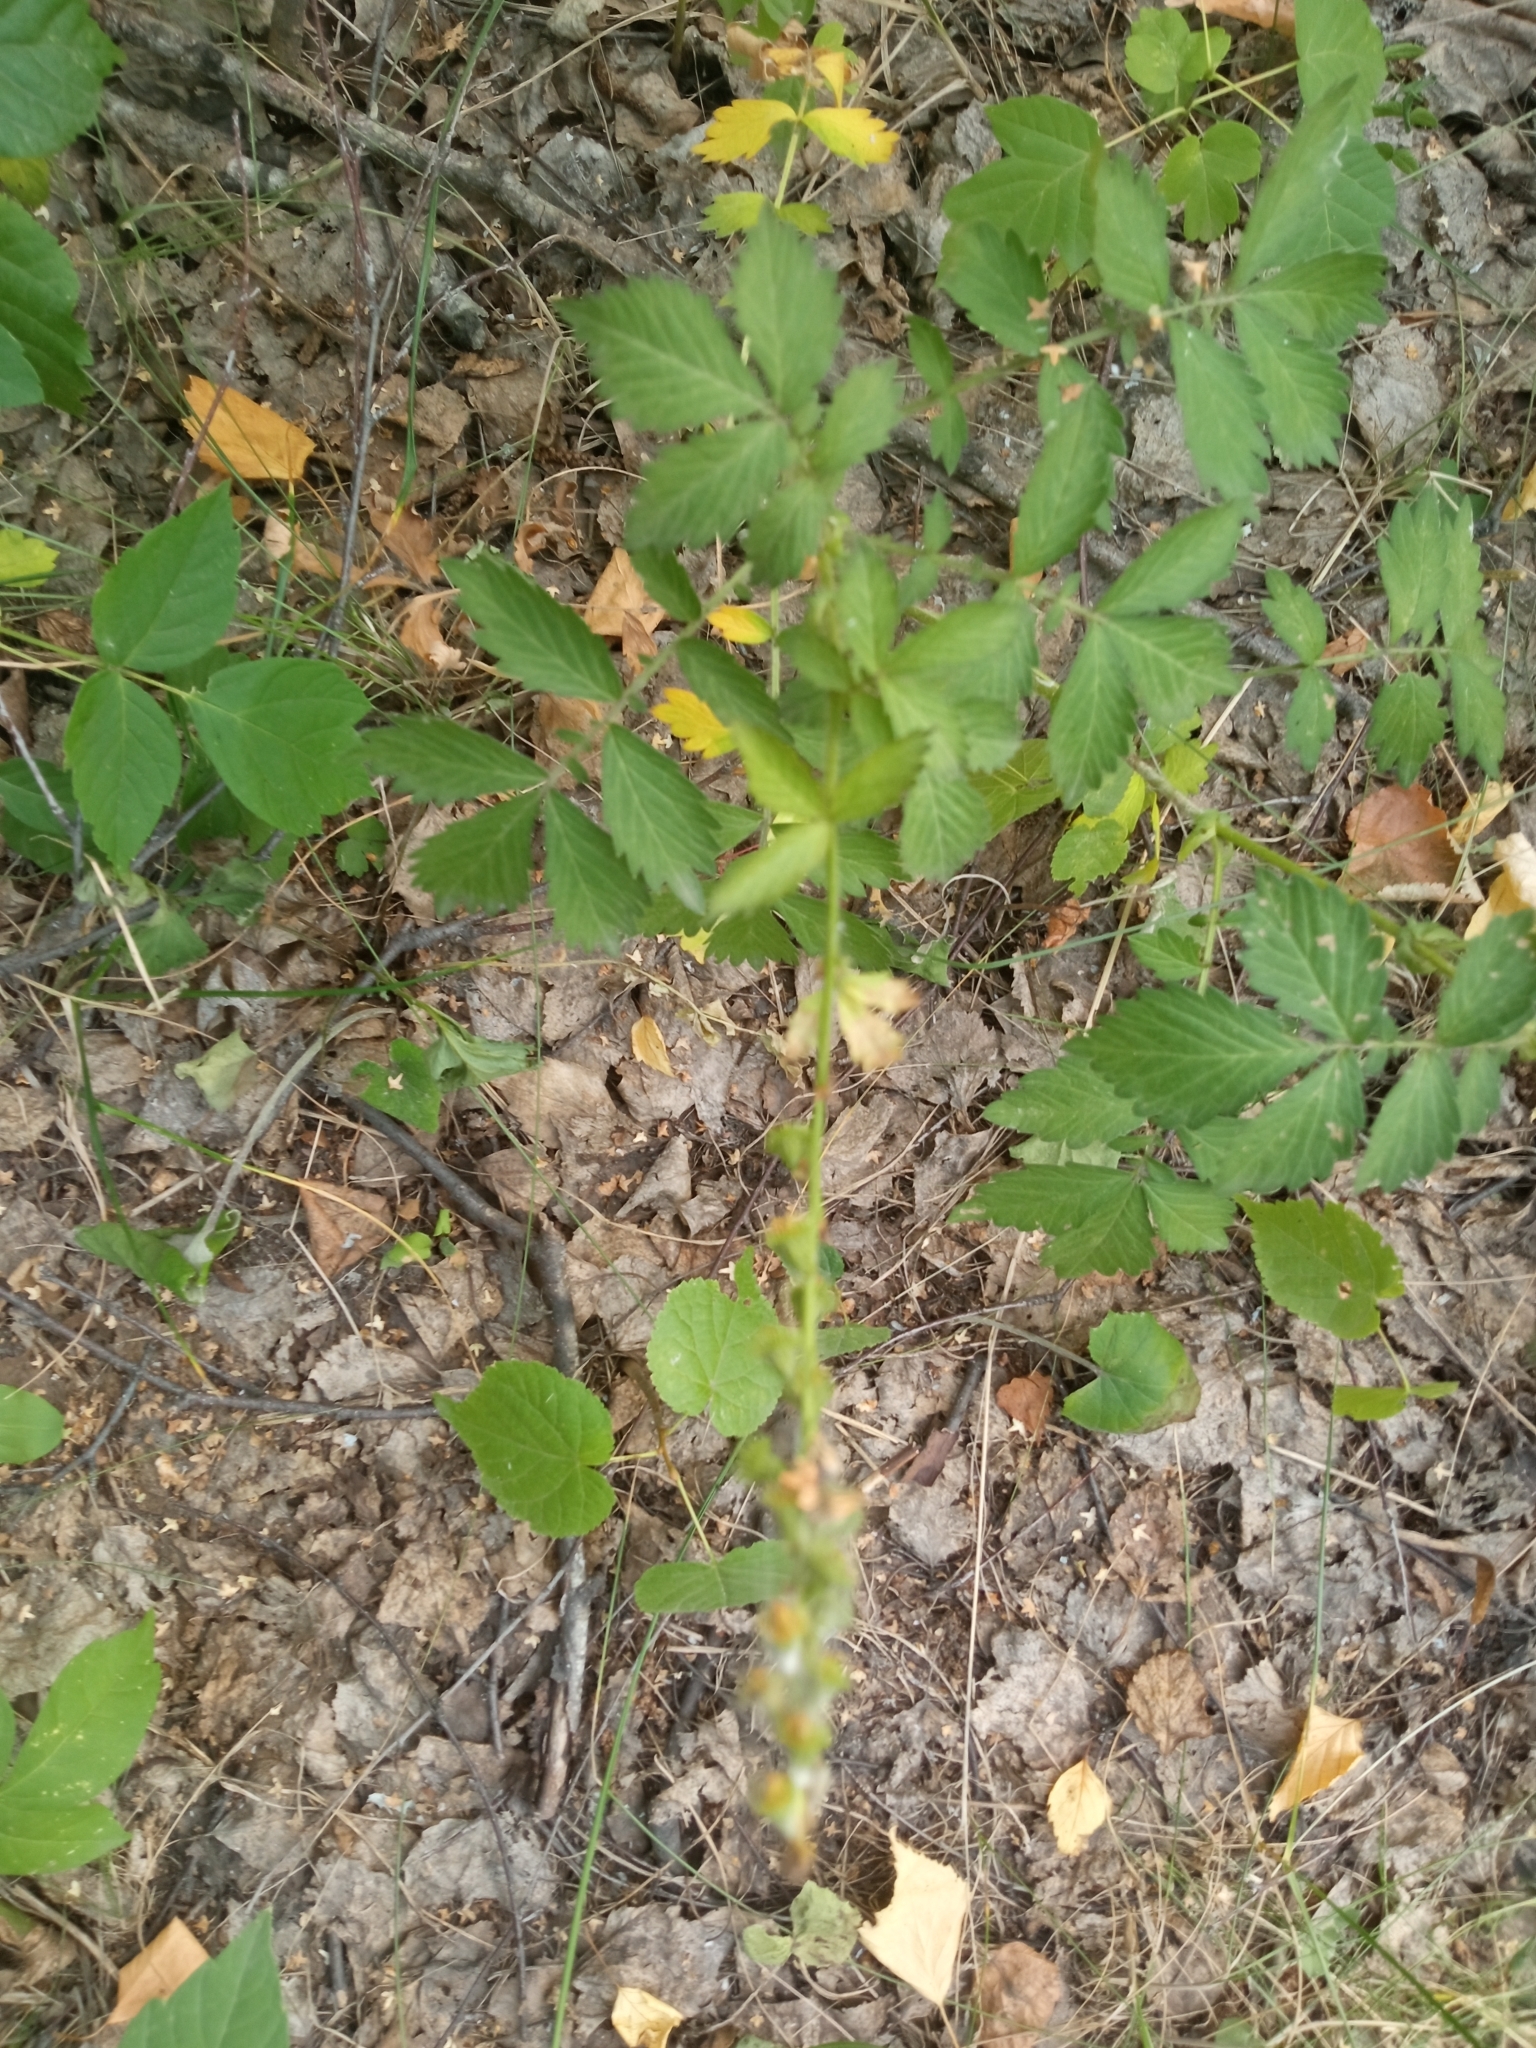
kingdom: Plantae
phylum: Tracheophyta
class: Magnoliopsida
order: Rosales
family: Rosaceae
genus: Agrimonia
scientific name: Agrimonia pilosa
